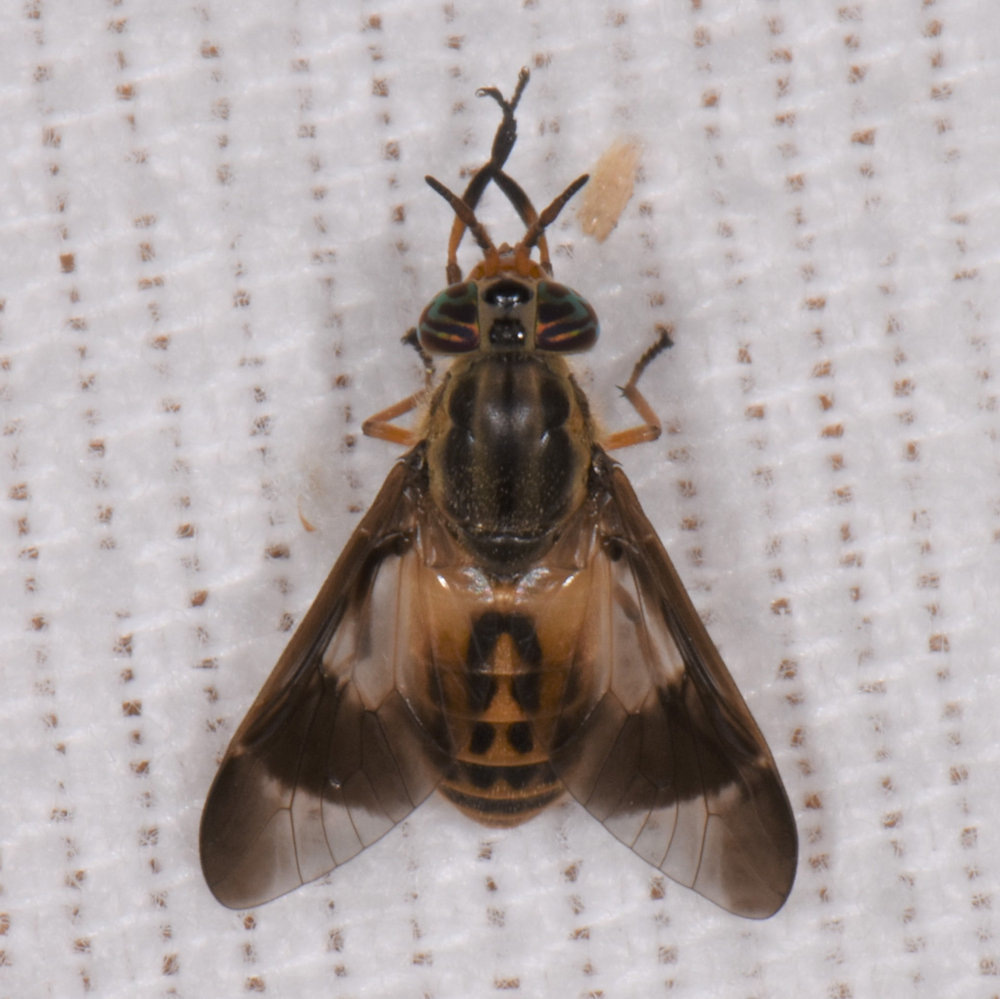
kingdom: Animalia
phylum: Arthropoda
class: Insecta
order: Diptera
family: Tabanidae
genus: Chrysops
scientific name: Chrysops montanus
